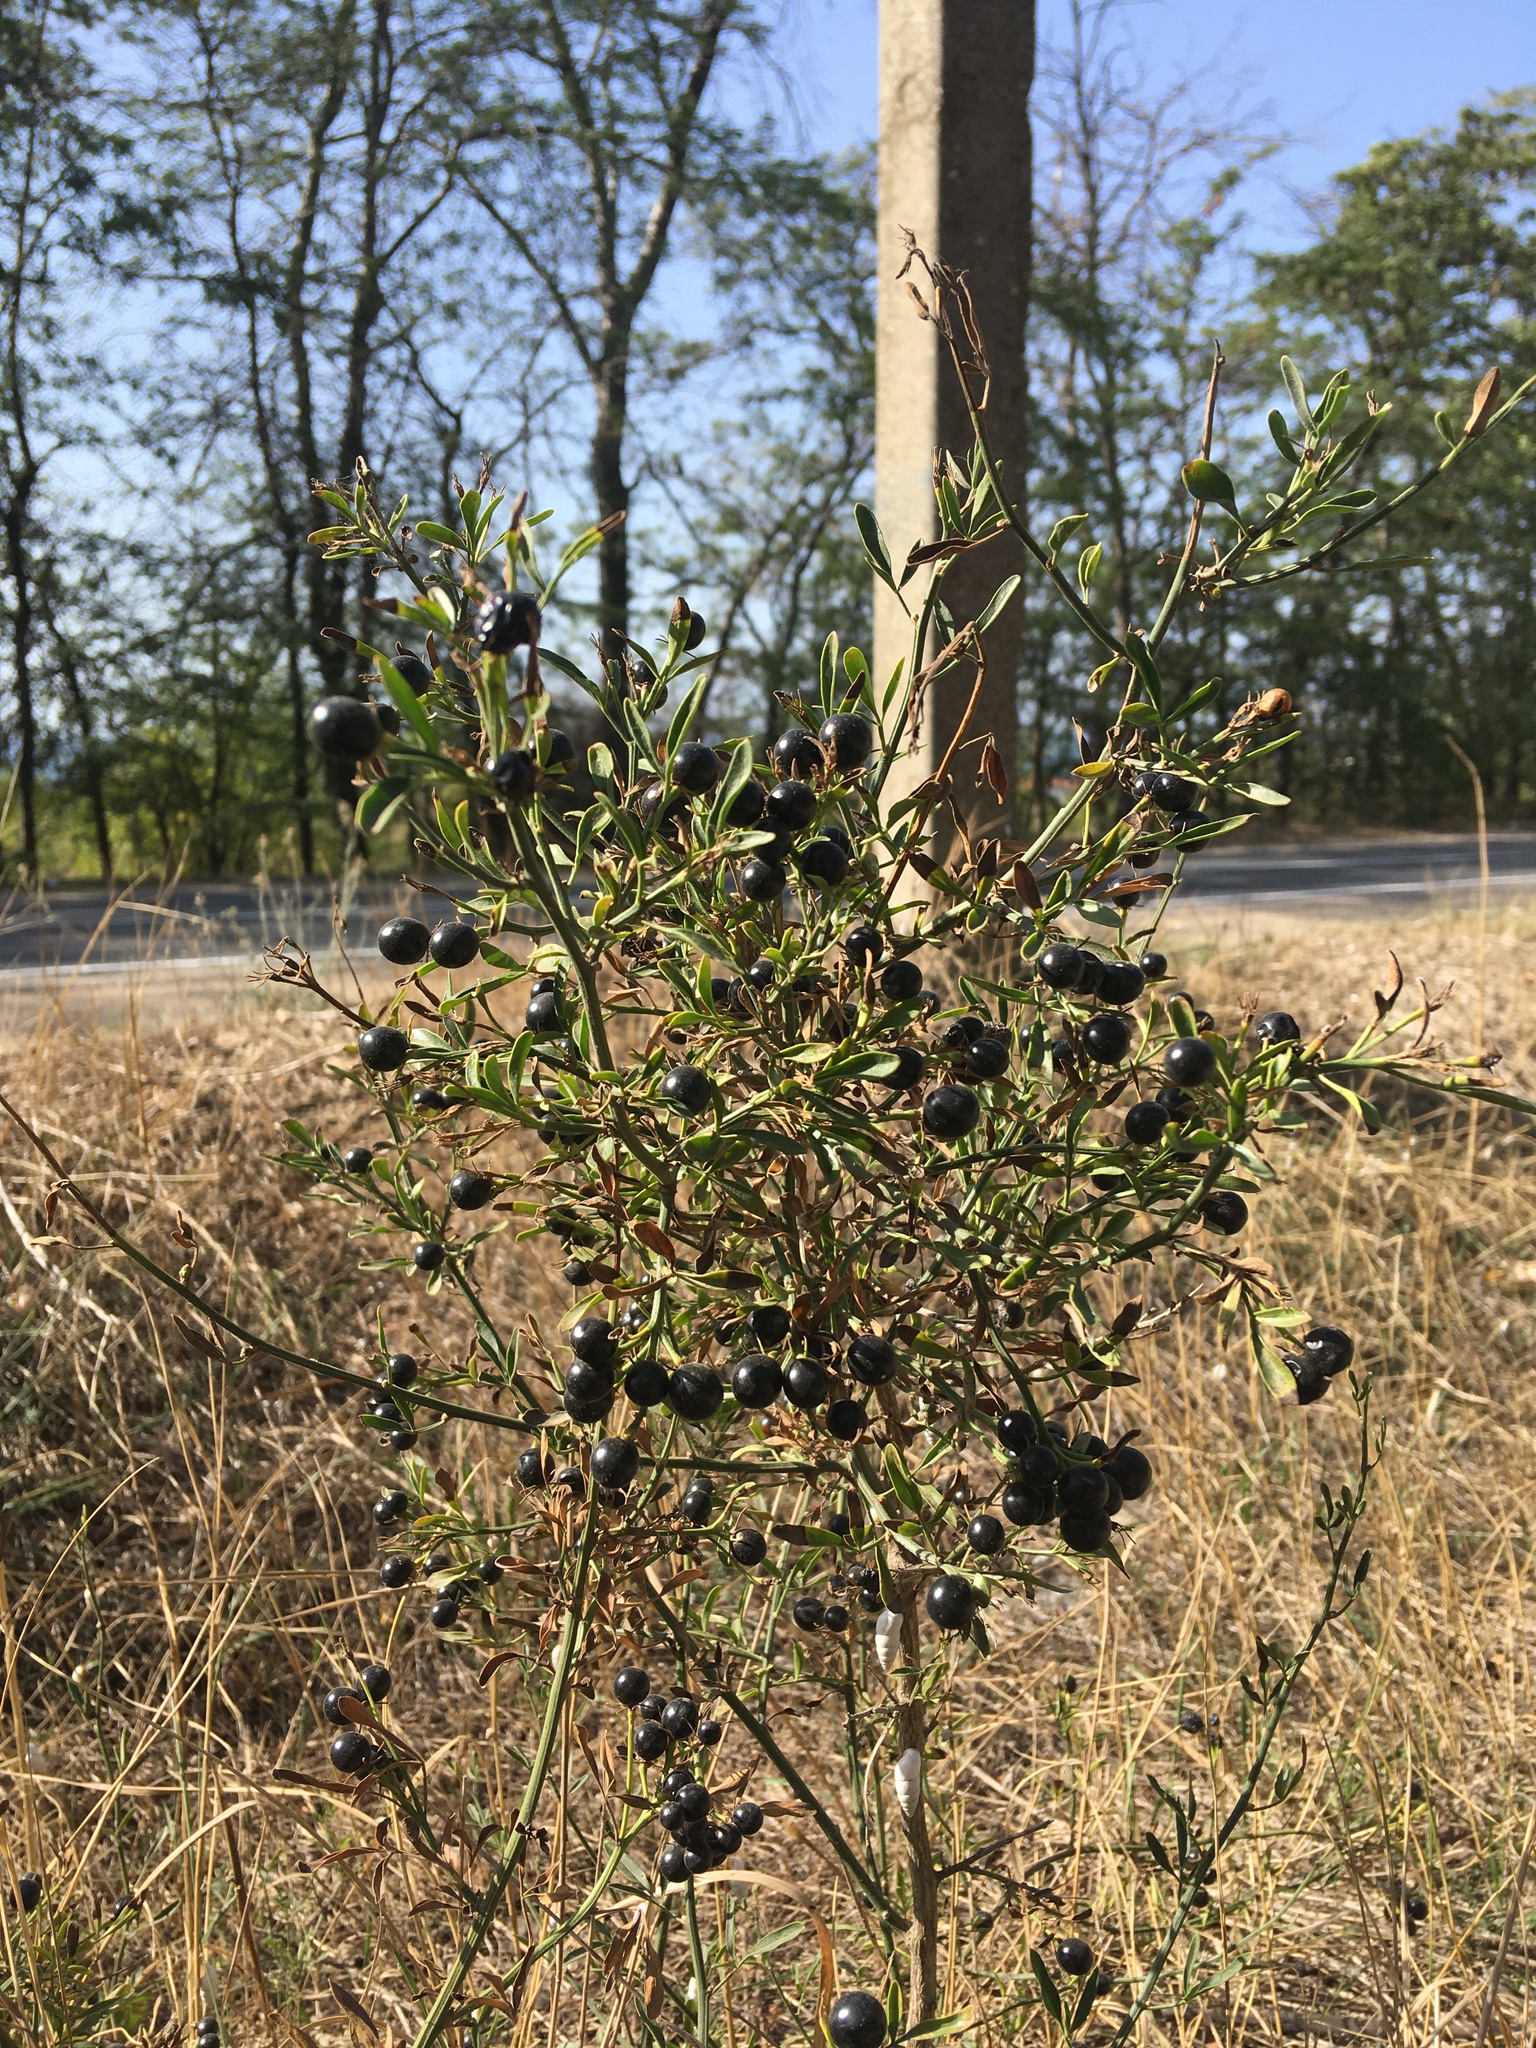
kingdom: Plantae
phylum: Tracheophyta
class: Magnoliopsida
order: Lamiales
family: Oleaceae
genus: Chrysojasminum
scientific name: Chrysojasminum fruticans
